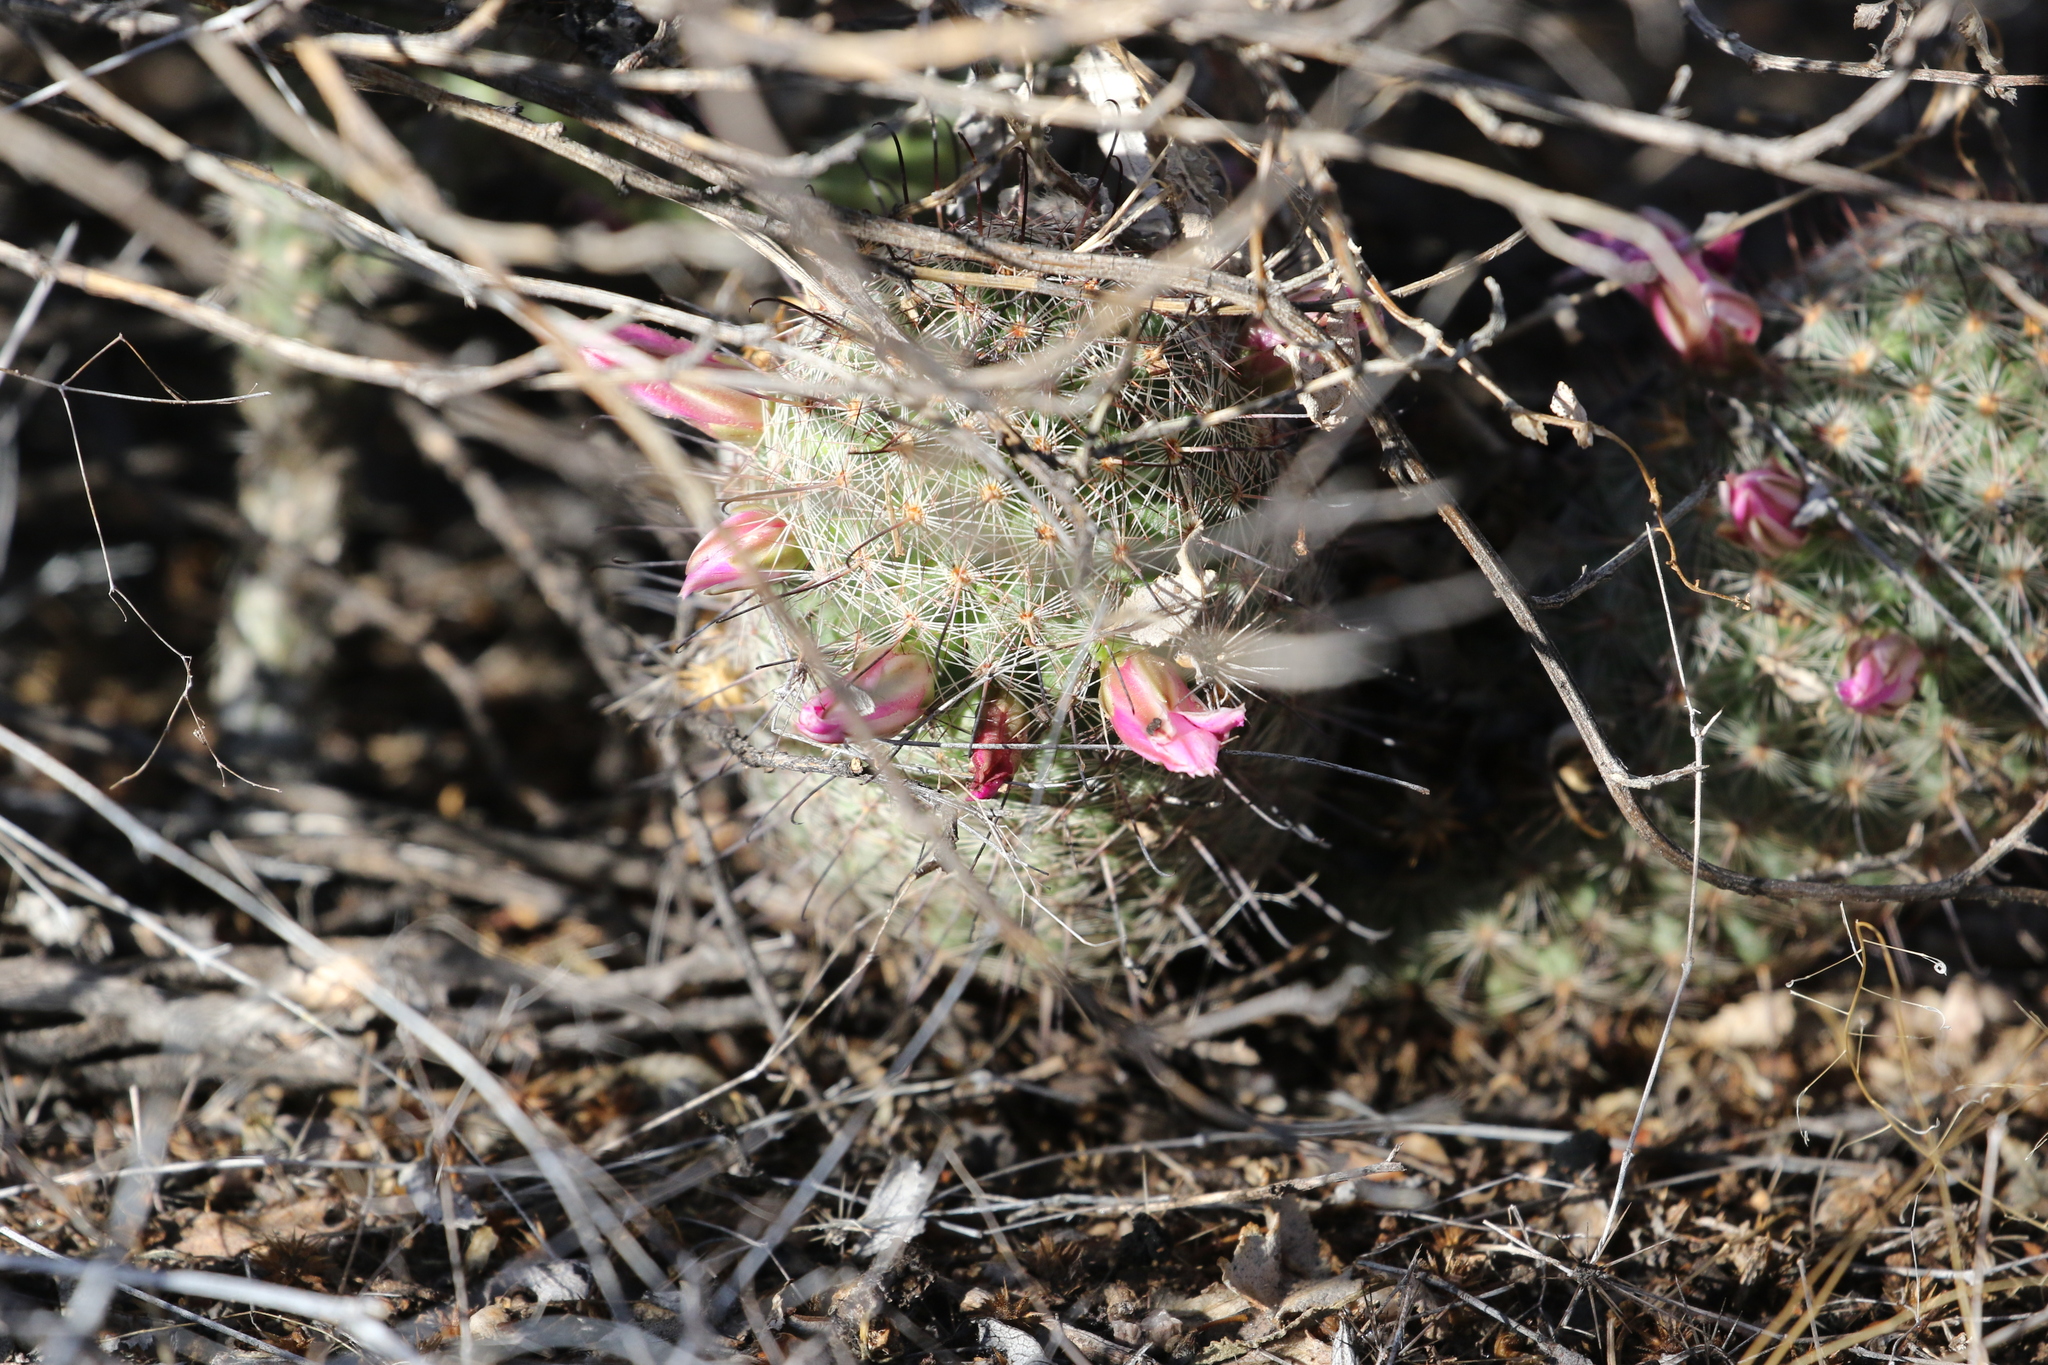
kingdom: Plantae
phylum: Tracheophyta
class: Magnoliopsida
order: Caryophyllales
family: Cactaceae
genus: Cochemiea
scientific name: Cochemiea grahamii
